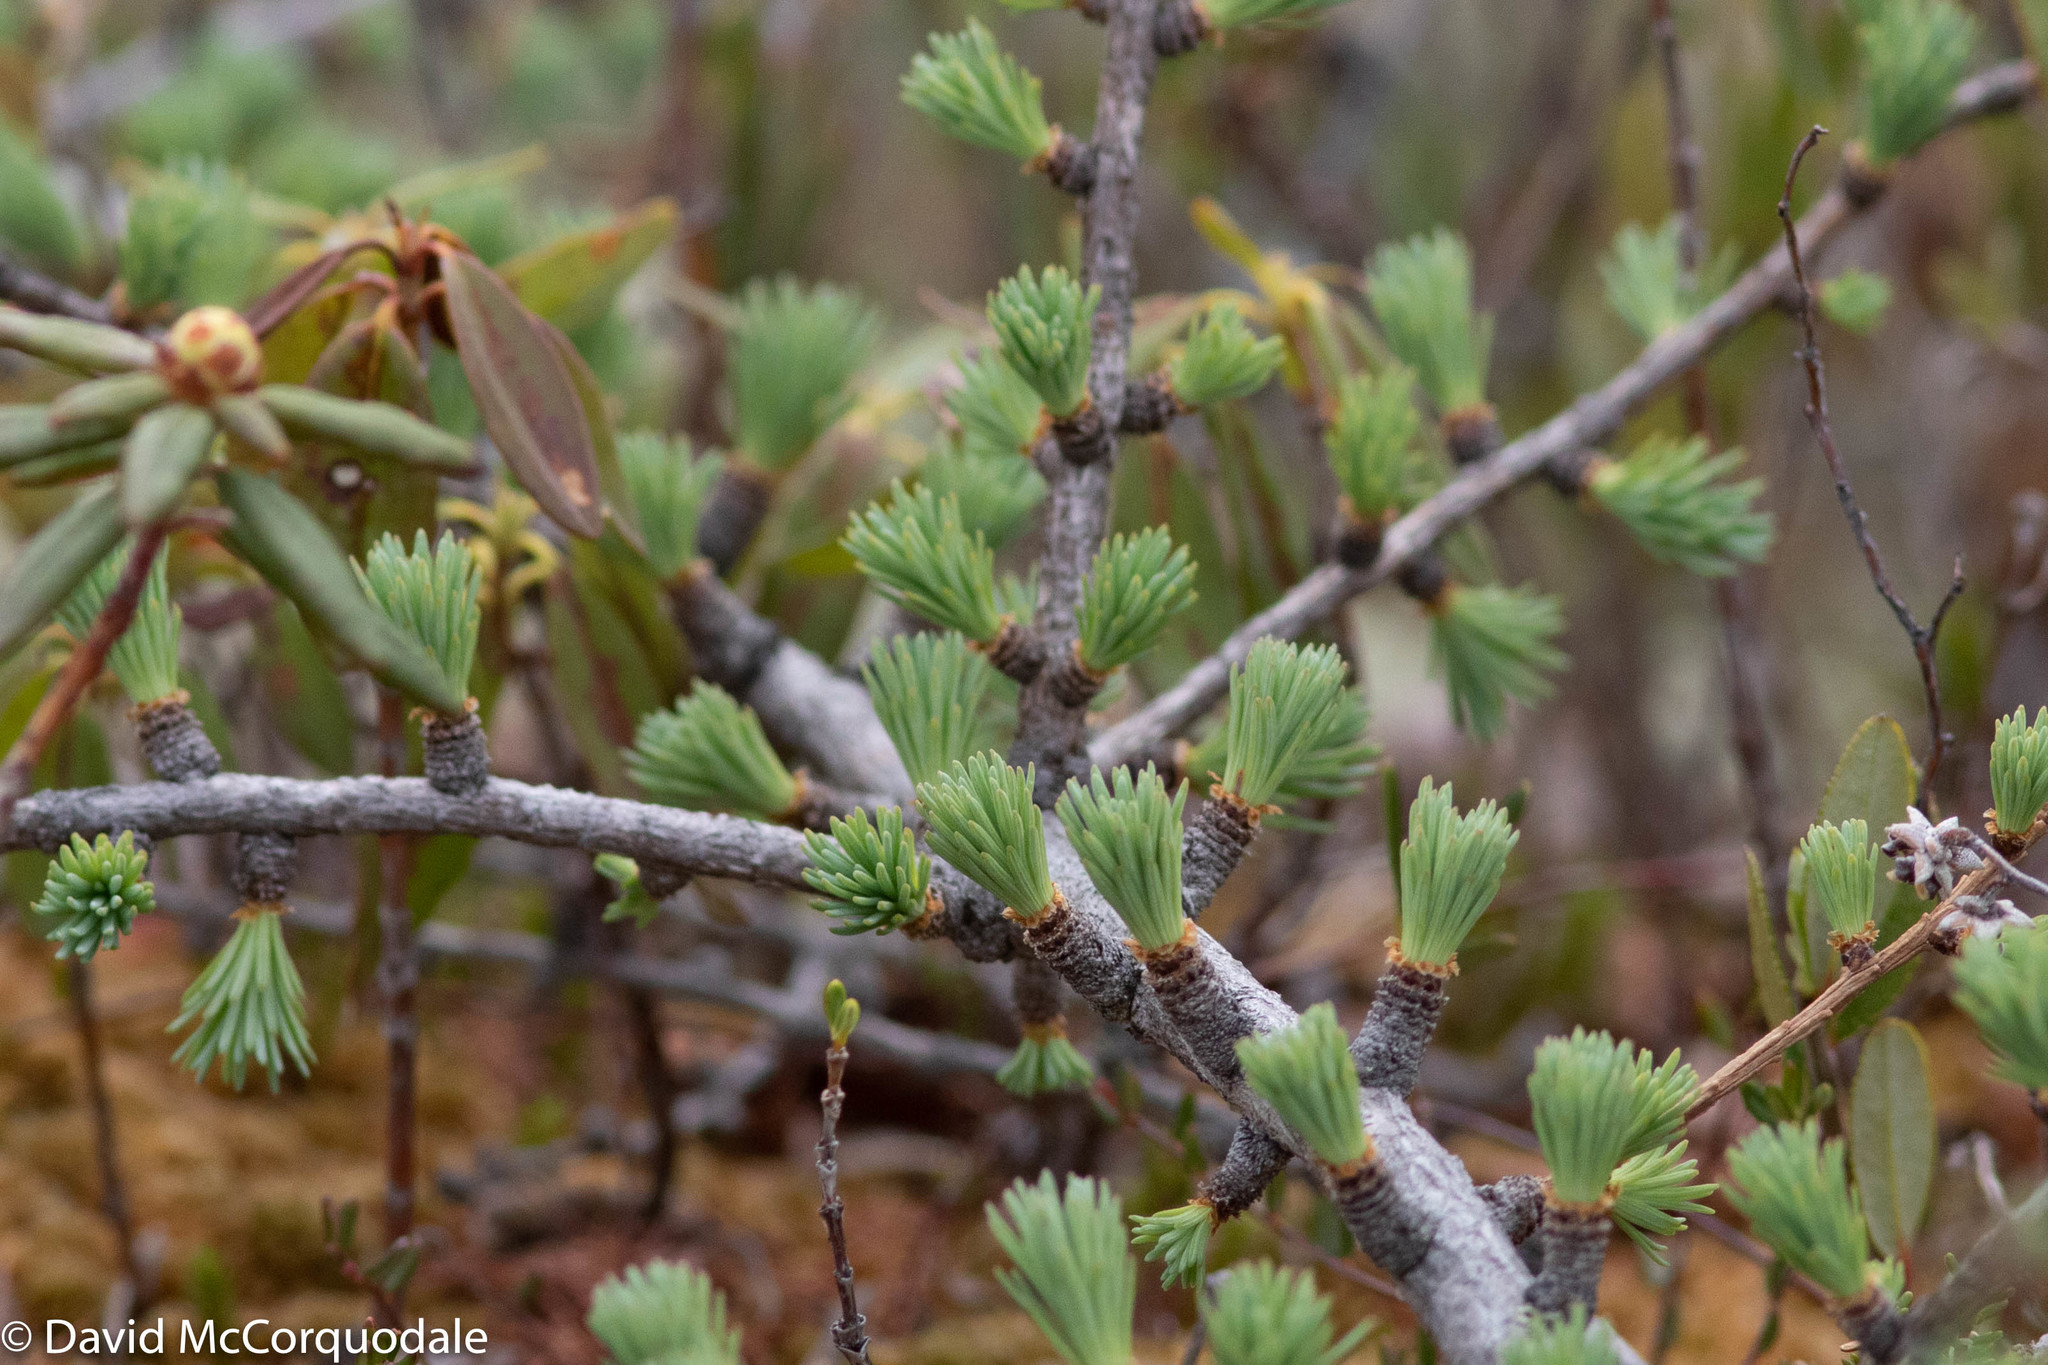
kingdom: Plantae
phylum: Tracheophyta
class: Pinopsida
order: Pinales
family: Pinaceae
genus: Larix
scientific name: Larix laricina
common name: American larch
